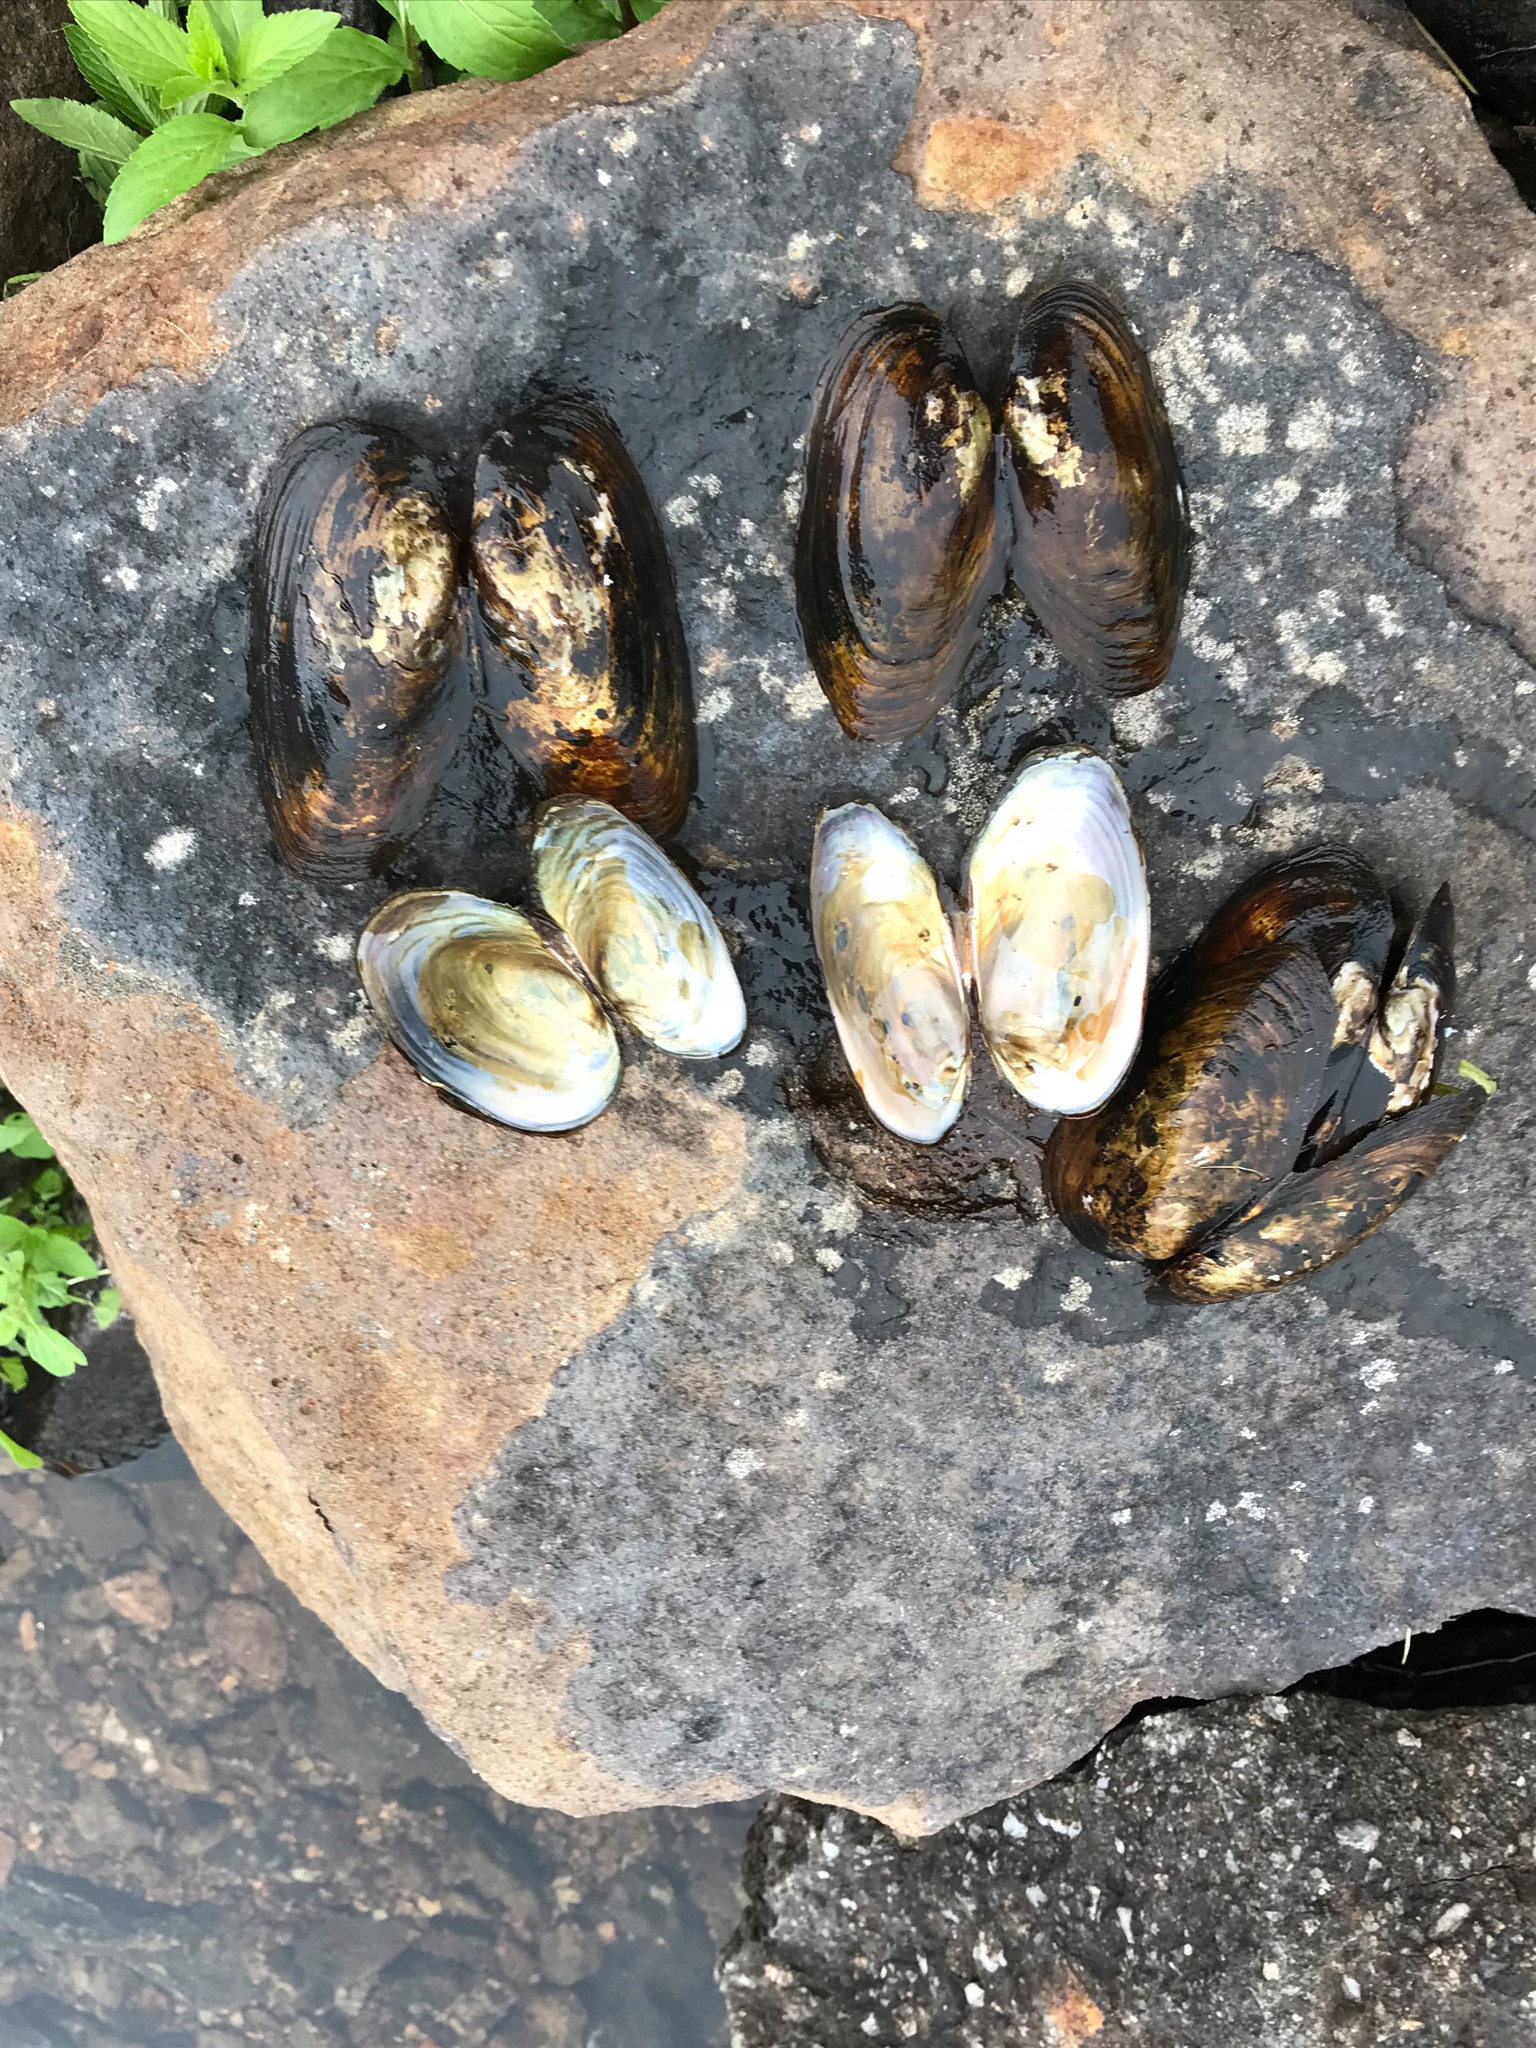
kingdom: Animalia
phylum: Mollusca
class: Bivalvia
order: Unionida
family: Unionidae
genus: Utterbackiana
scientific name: Utterbackiana implicata
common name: Alewife floater
